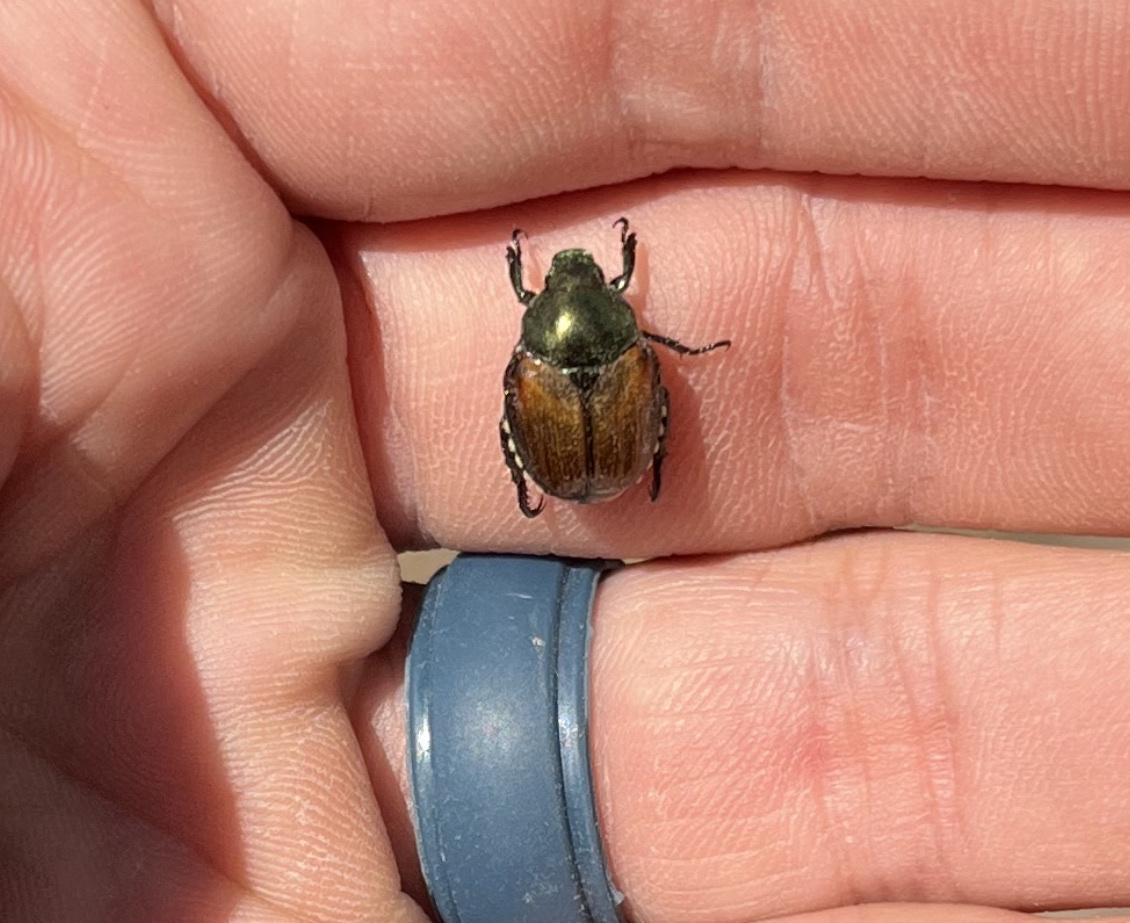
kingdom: Animalia
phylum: Arthropoda
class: Insecta
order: Coleoptera
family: Scarabaeidae
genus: Popillia
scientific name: Popillia japonica
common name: Japanese beetle
